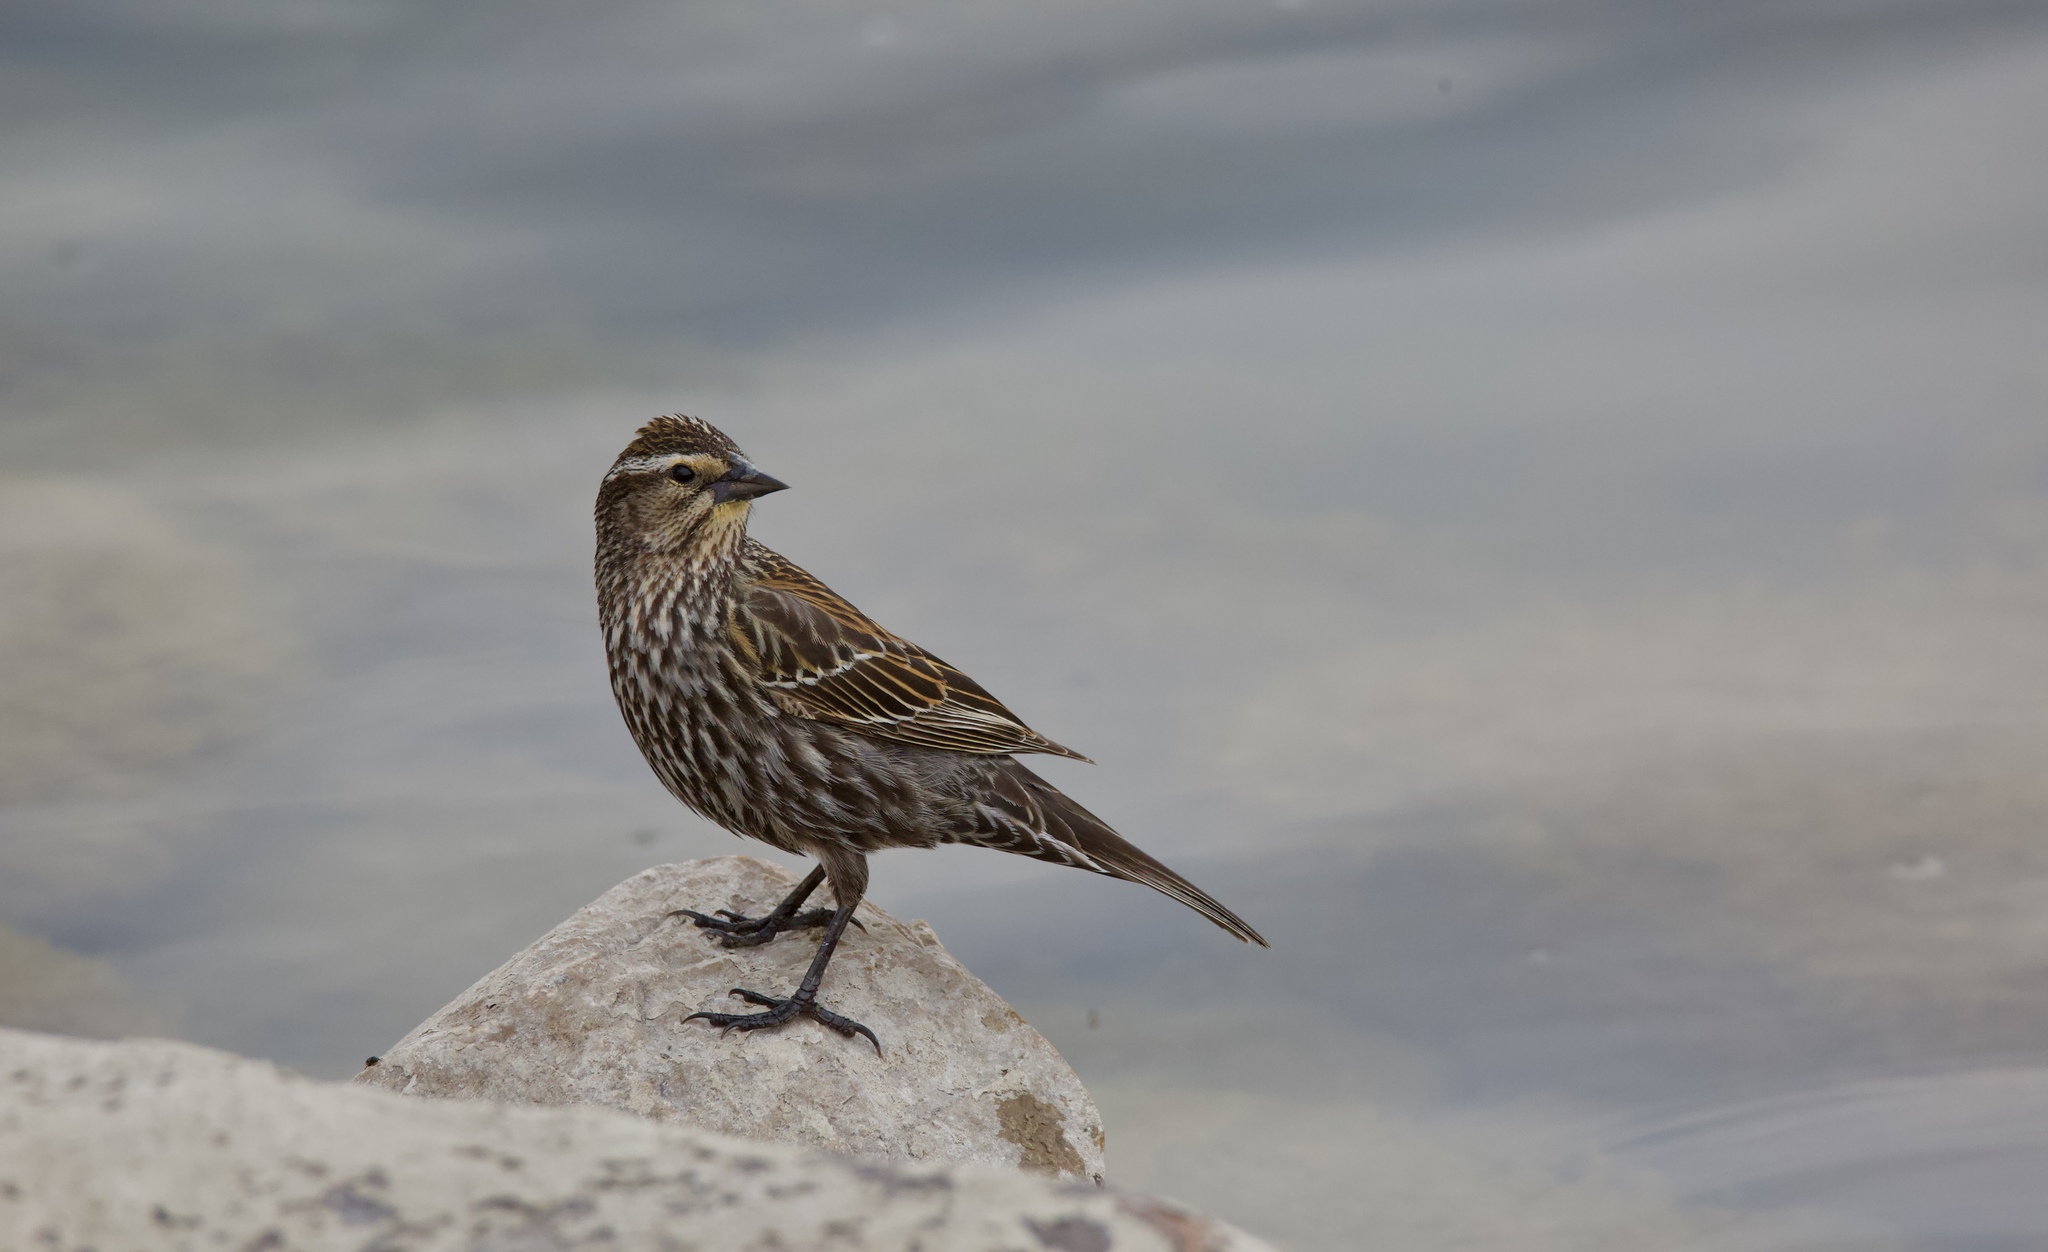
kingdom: Animalia
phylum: Chordata
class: Aves
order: Passeriformes
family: Icteridae
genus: Agelaius
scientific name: Agelaius phoeniceus
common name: Red-winged blackbird
